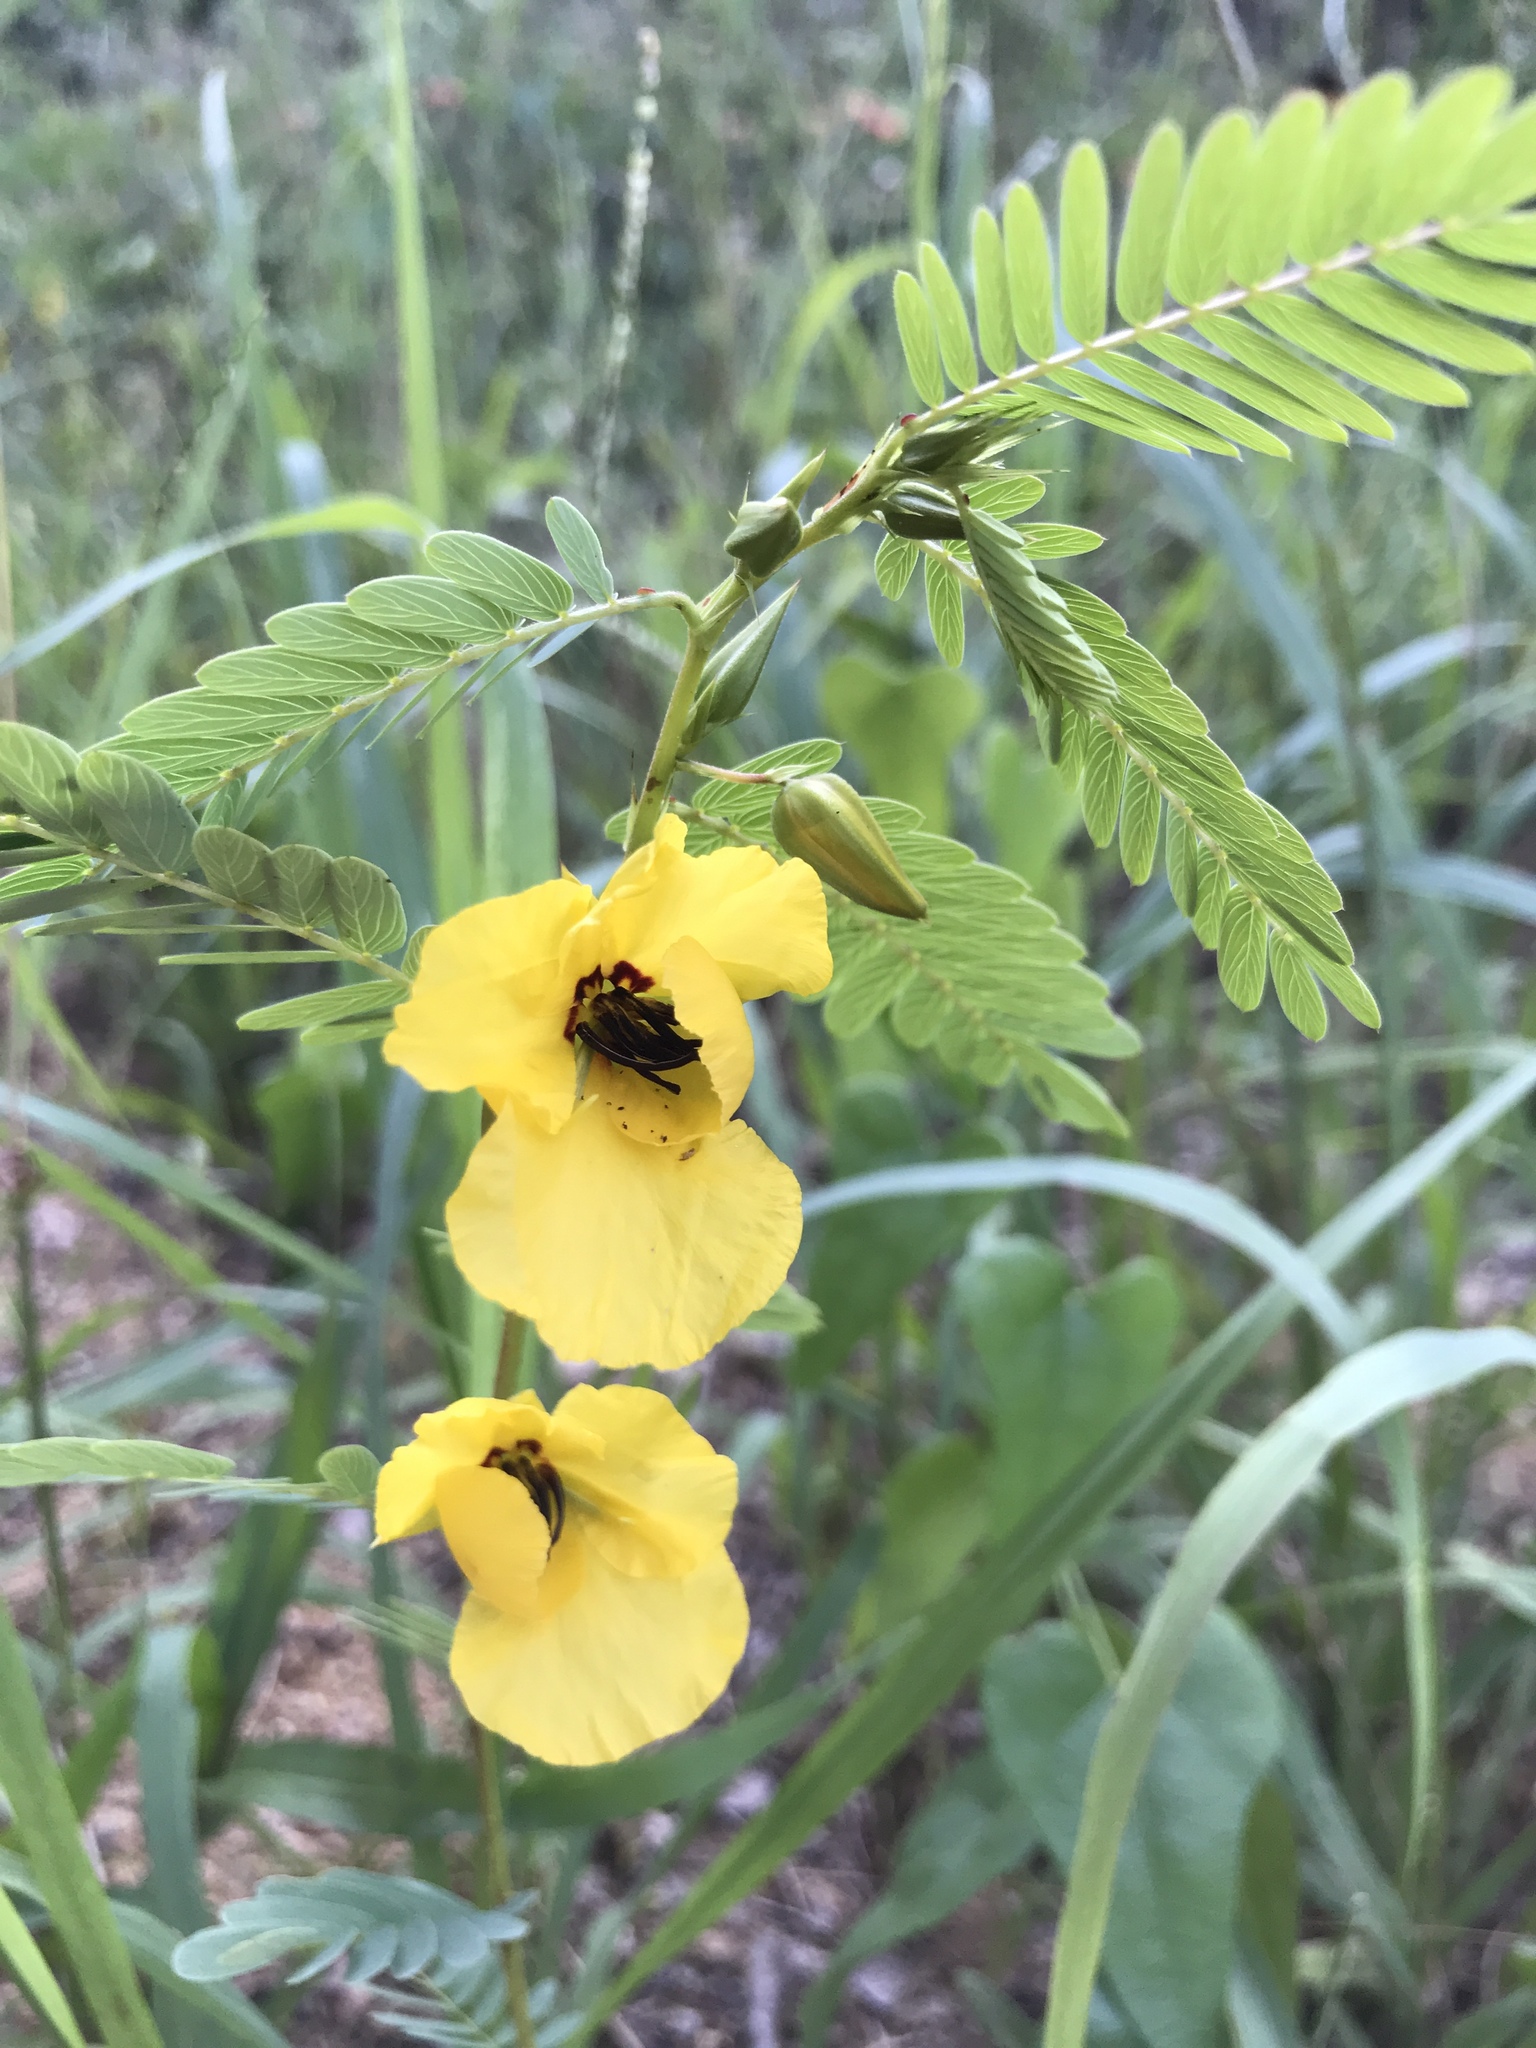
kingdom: Plantae
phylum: Tracheophyta
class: Magnoliopsida
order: Fabales
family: Fabaceae
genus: Chamaecrista
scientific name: Chamaecrista fasciculata
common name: Golden cassia
